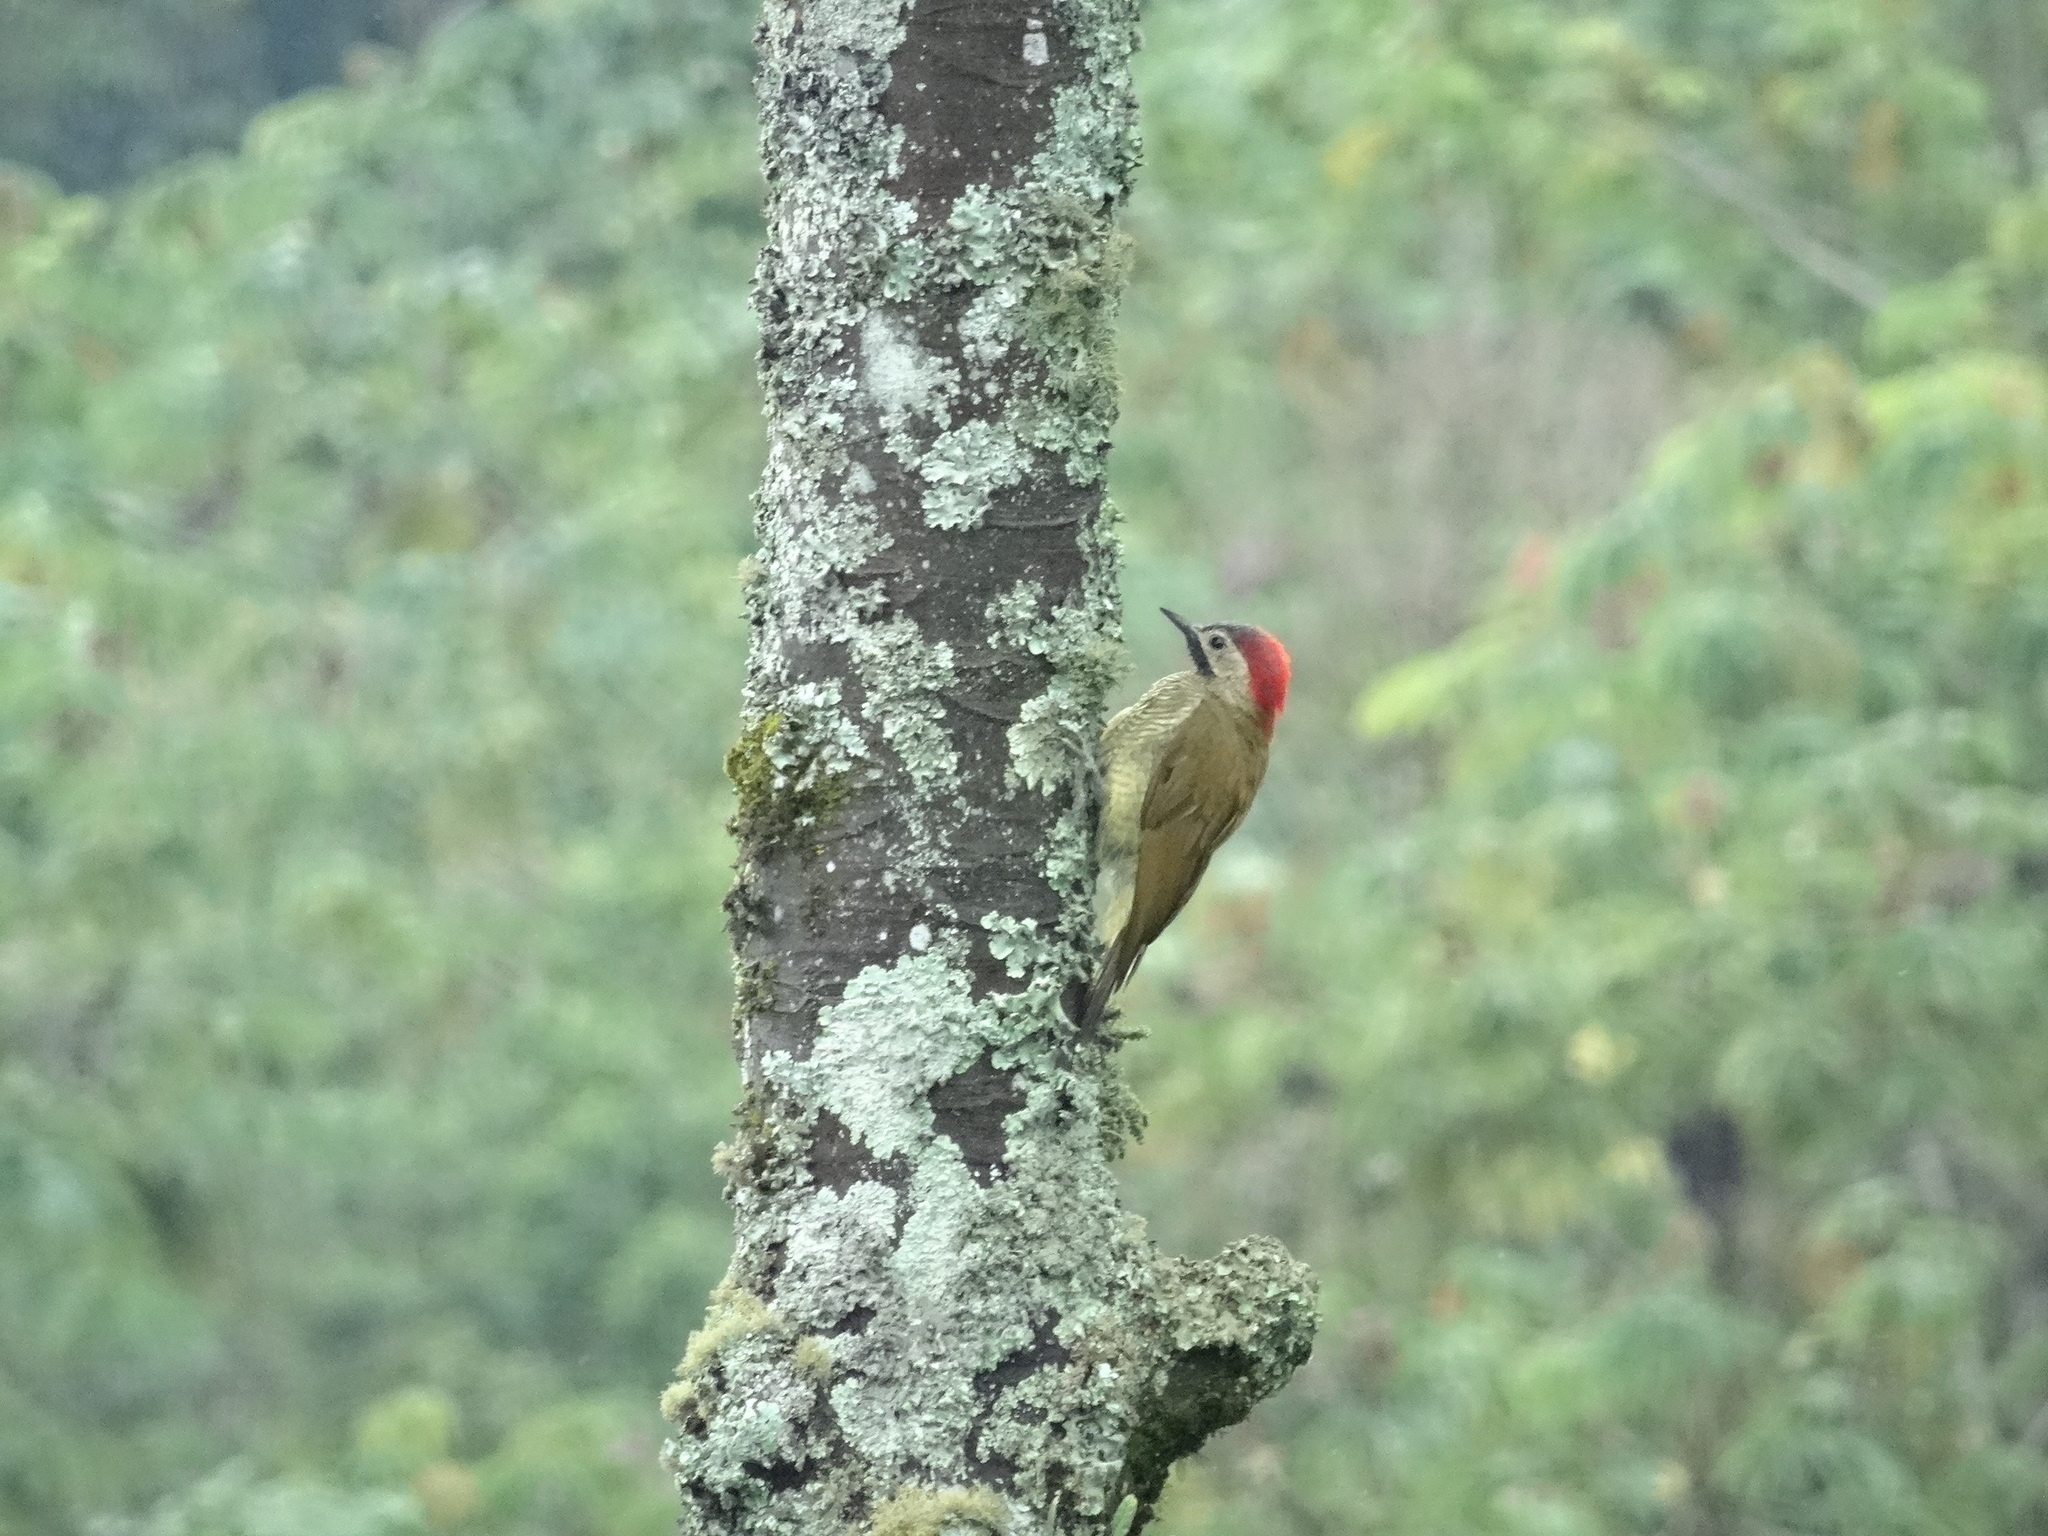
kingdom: Animalia
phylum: Chordata
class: Aves
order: Piciformes
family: Picidae
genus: Colaptes
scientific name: Colaptes rubiginosus
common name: Golden-olive woodpecker
